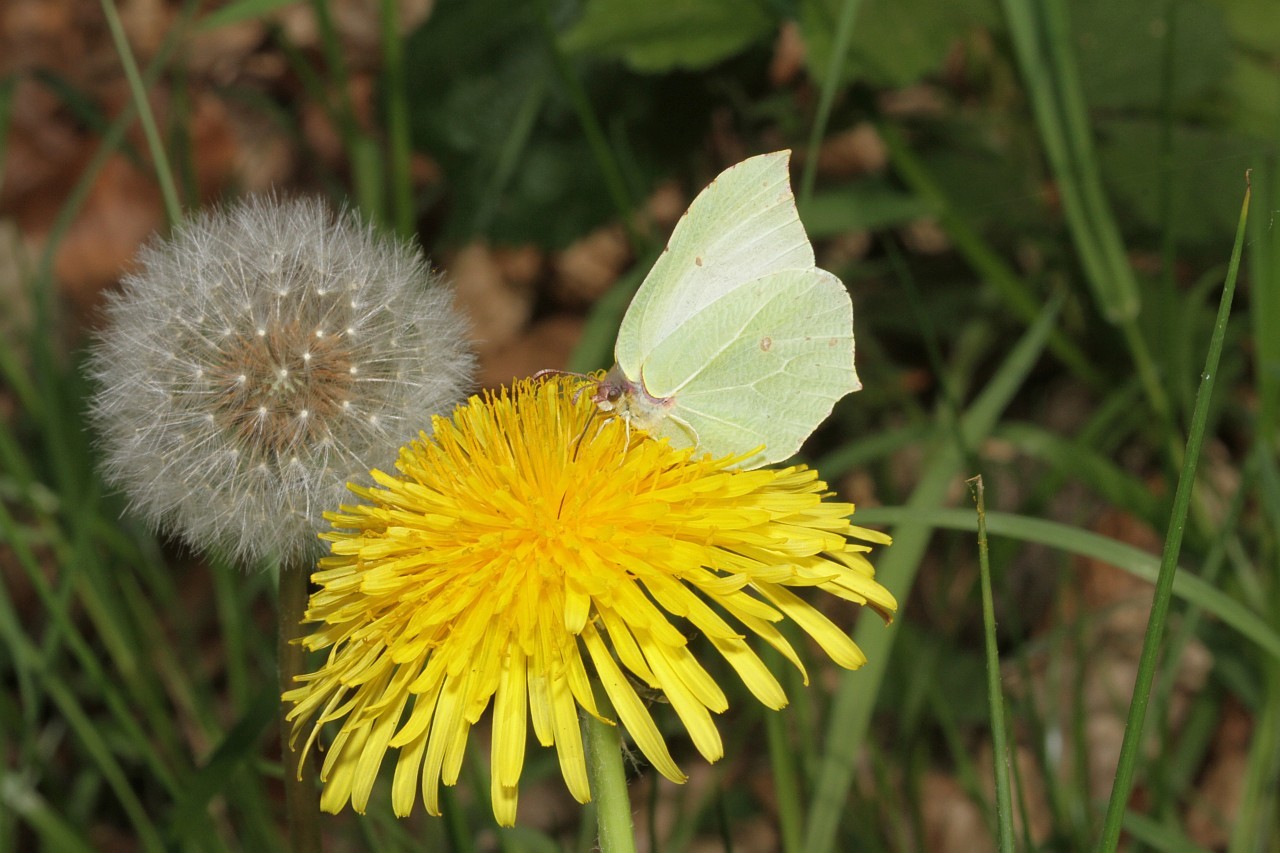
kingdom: Animalia
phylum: Arthropoda
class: Insecta
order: Lepidoptera
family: Pieridae
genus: Gonepteryx
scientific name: Gonepteryx rhamni
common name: Brimstone
